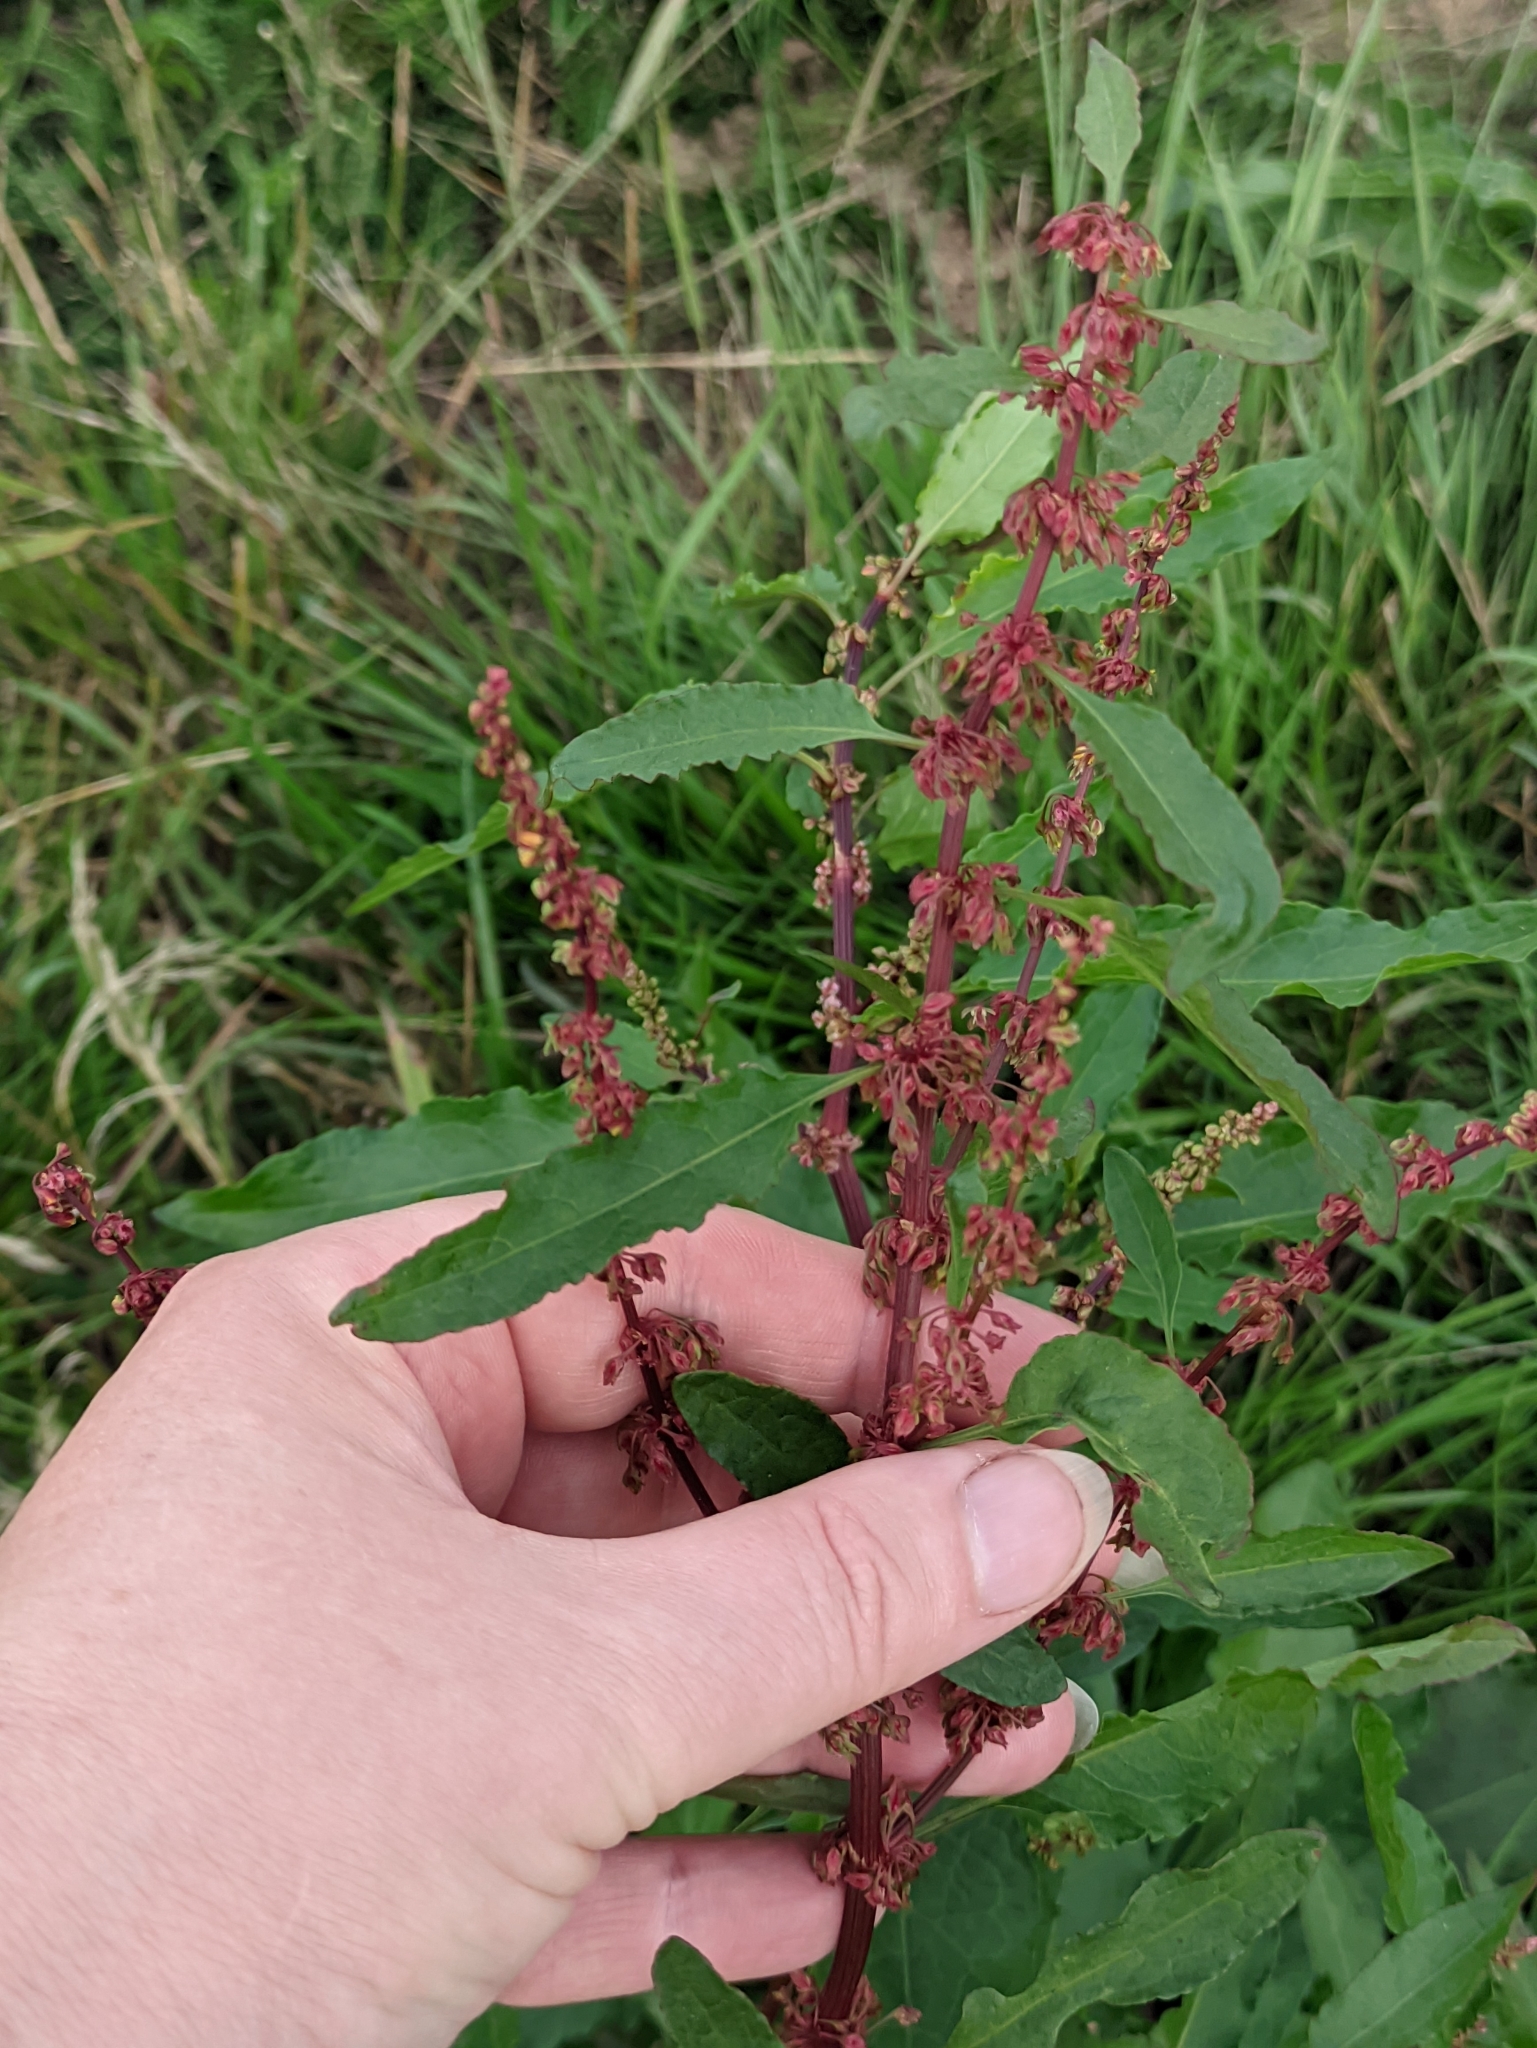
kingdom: Plantae
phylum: Tracheophyta
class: Magnoliopsida
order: Caryophyllales
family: Polygonaceae
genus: Rumex
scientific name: Rumex obtusifolius
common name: Bitter dock
